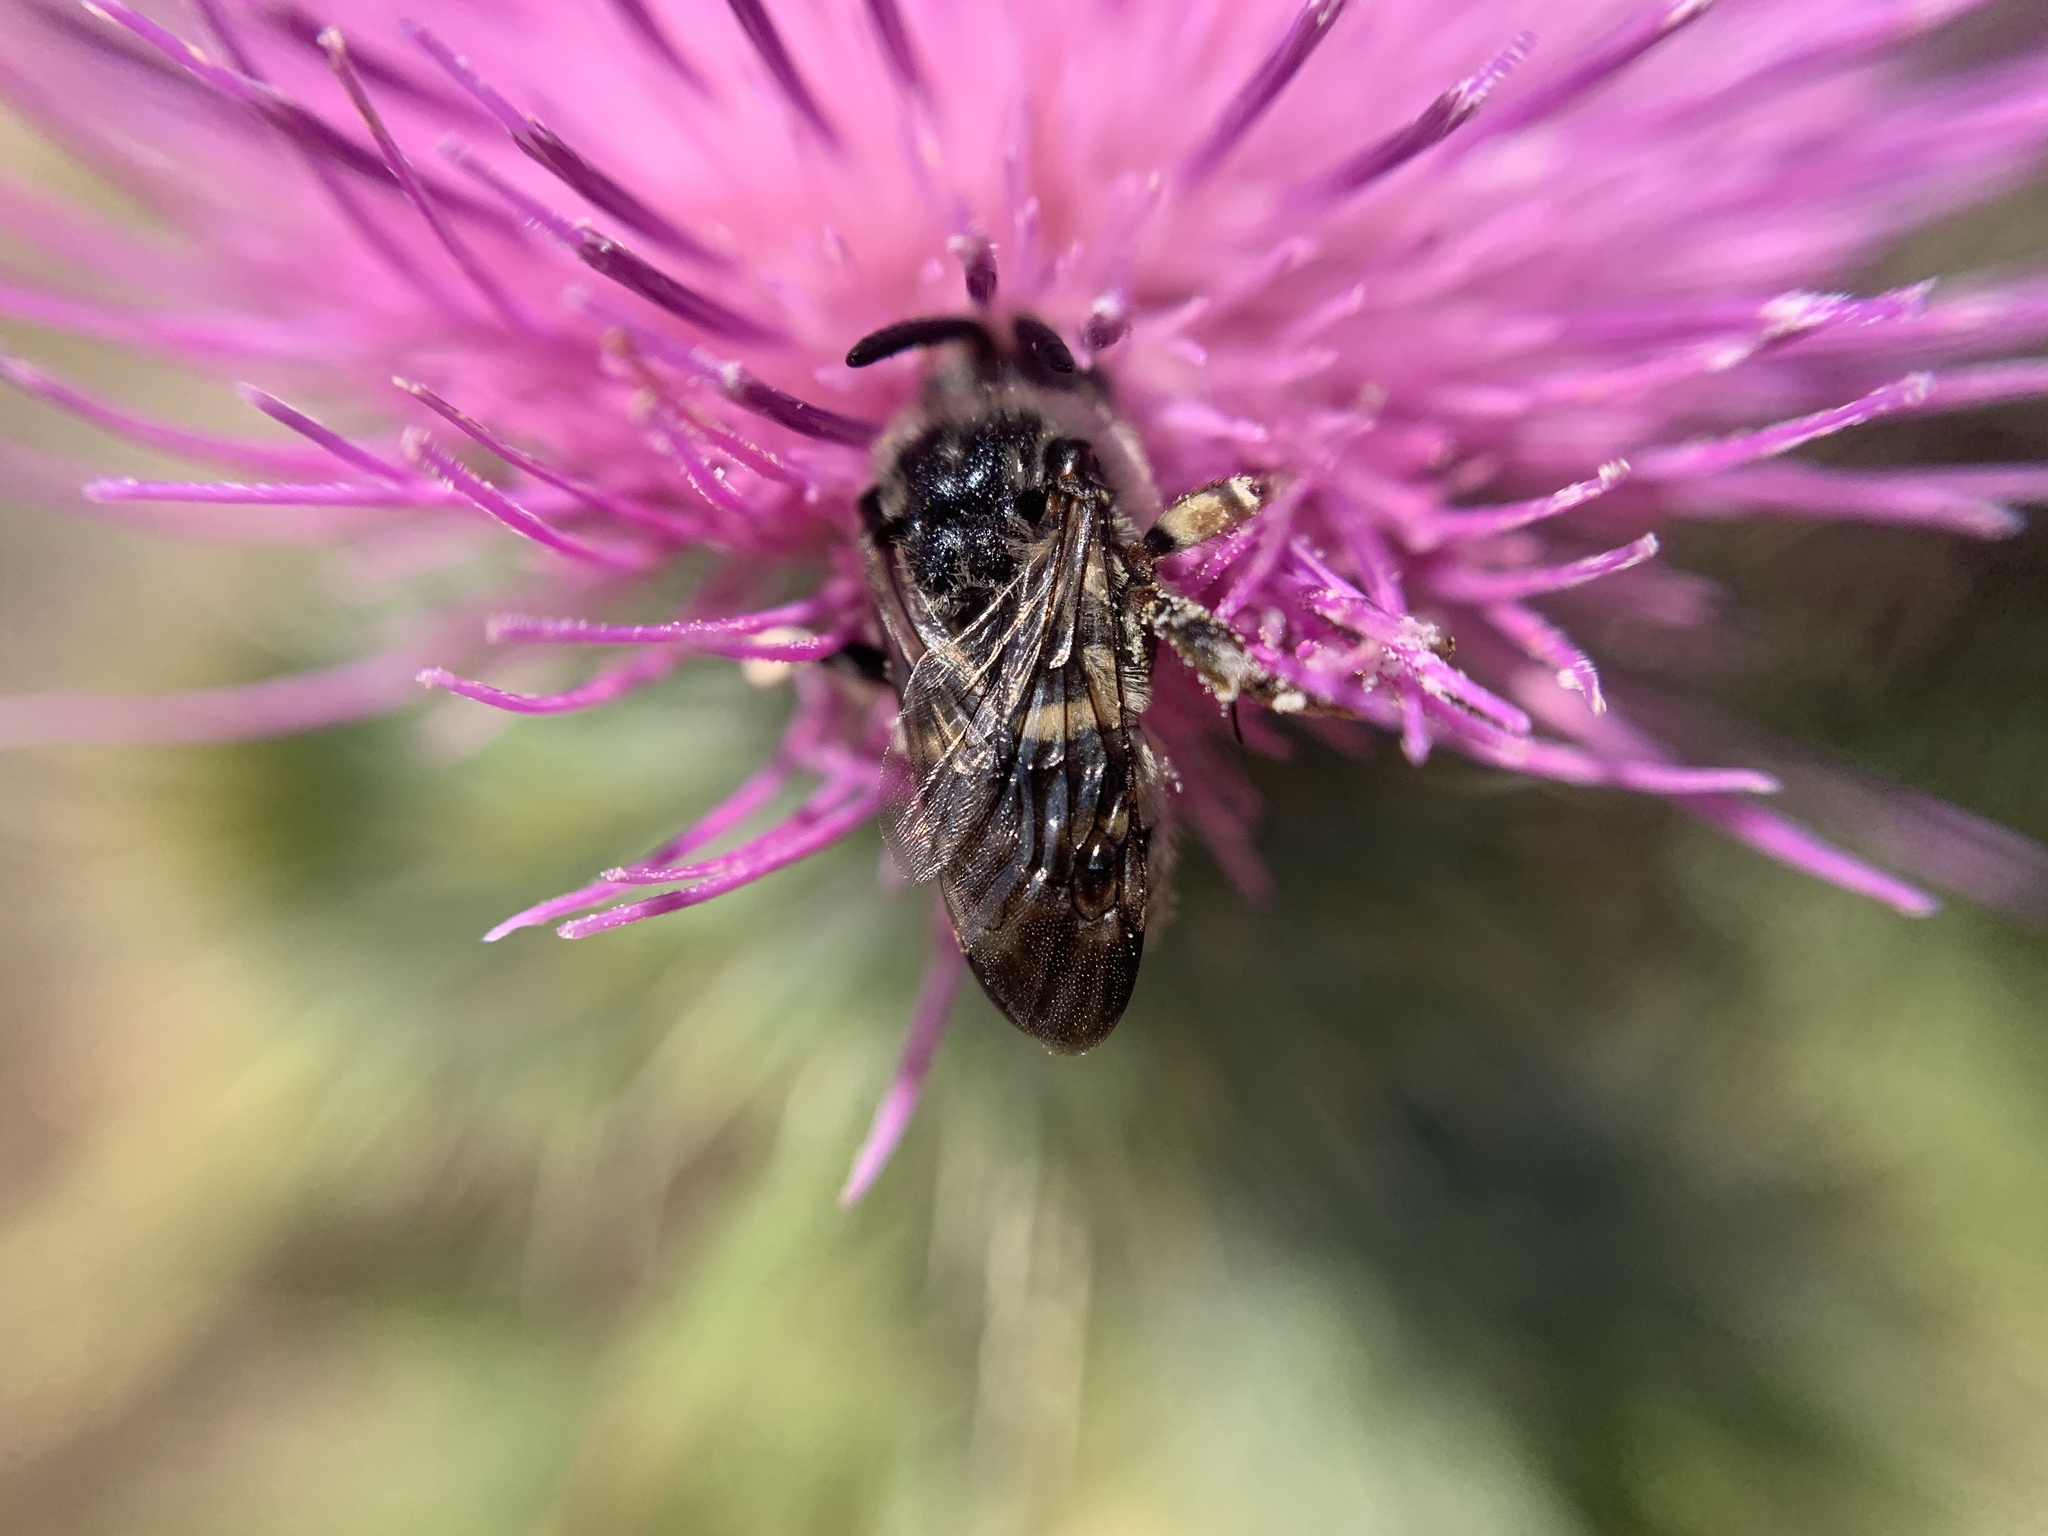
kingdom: Animalia
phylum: Arthropoda
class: Insecta
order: Hymenoptera
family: Apidae
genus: Brachymelecta
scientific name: Brachymelecta californica
